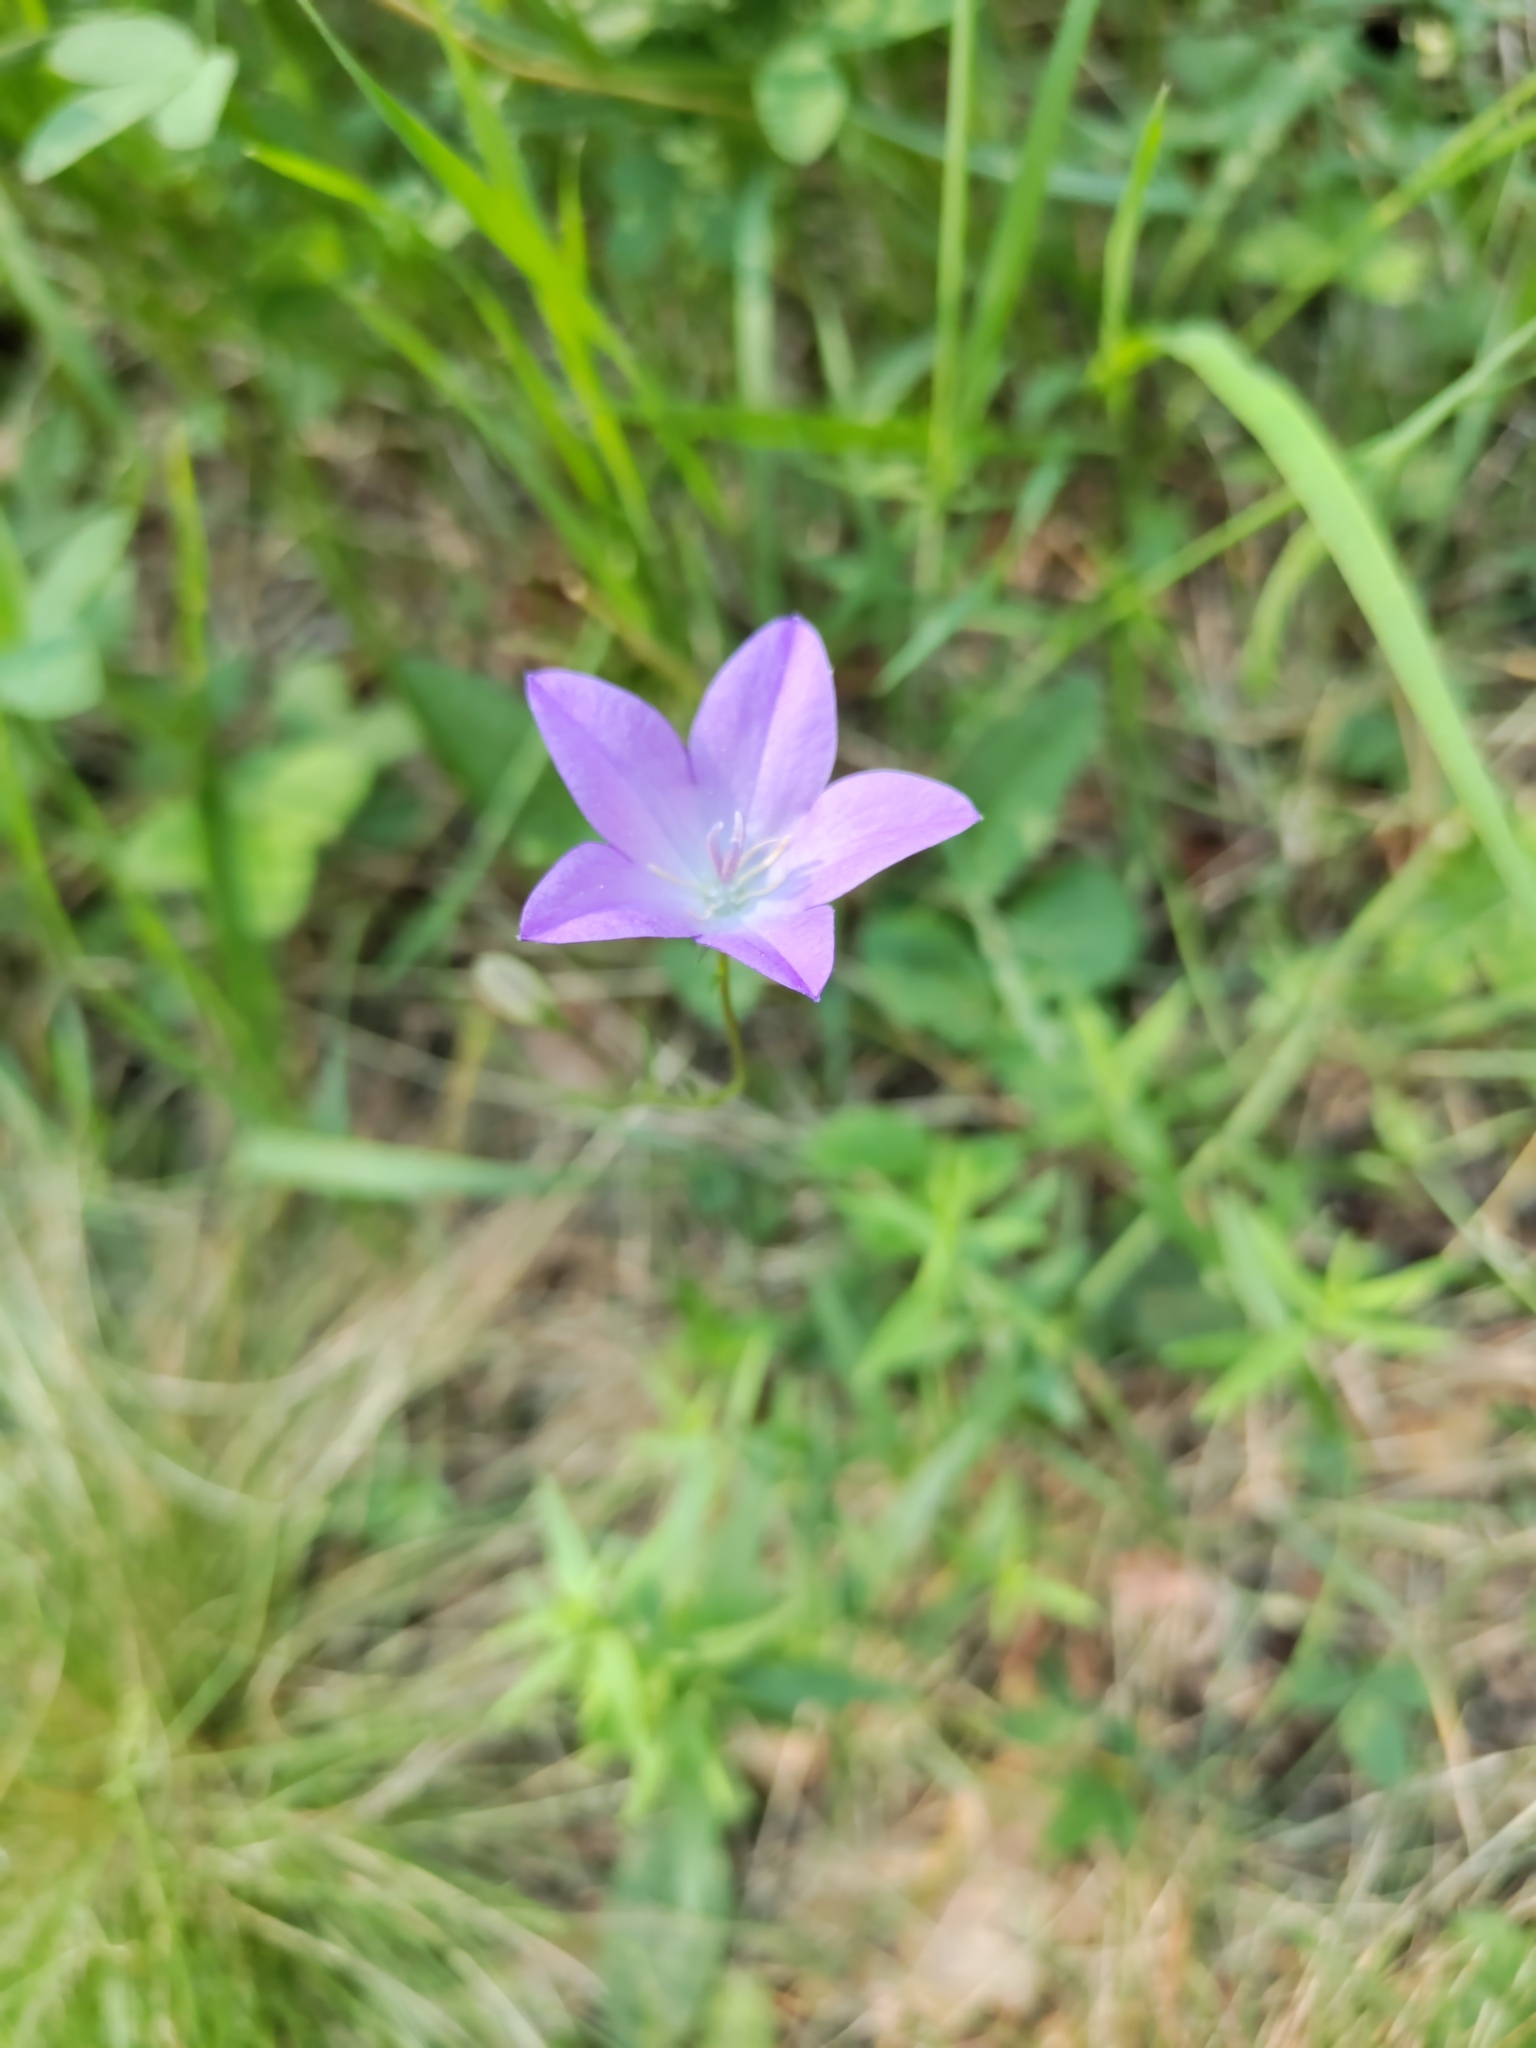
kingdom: Plantae
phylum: Tracheophyta
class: Magnoliopsida
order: Asterales
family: Campanulaceae
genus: Campanula
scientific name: Campanula patula
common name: Spreading bellflower
